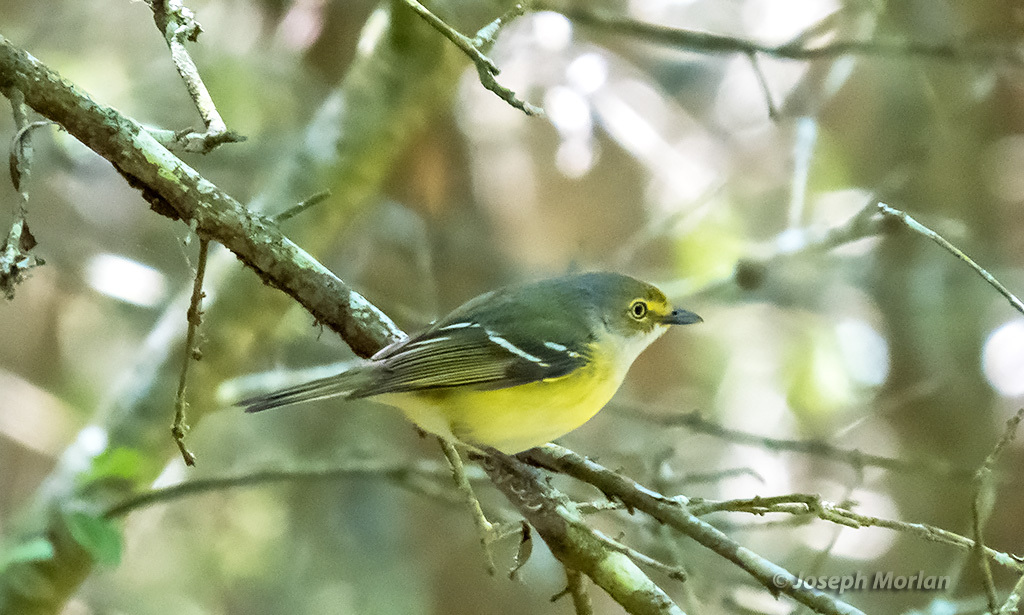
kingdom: Animalia
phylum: Chordata
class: Aves
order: Passeriformes
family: Vireonidae
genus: Vireo
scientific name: Vireo griseus
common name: White-eyed vireo
